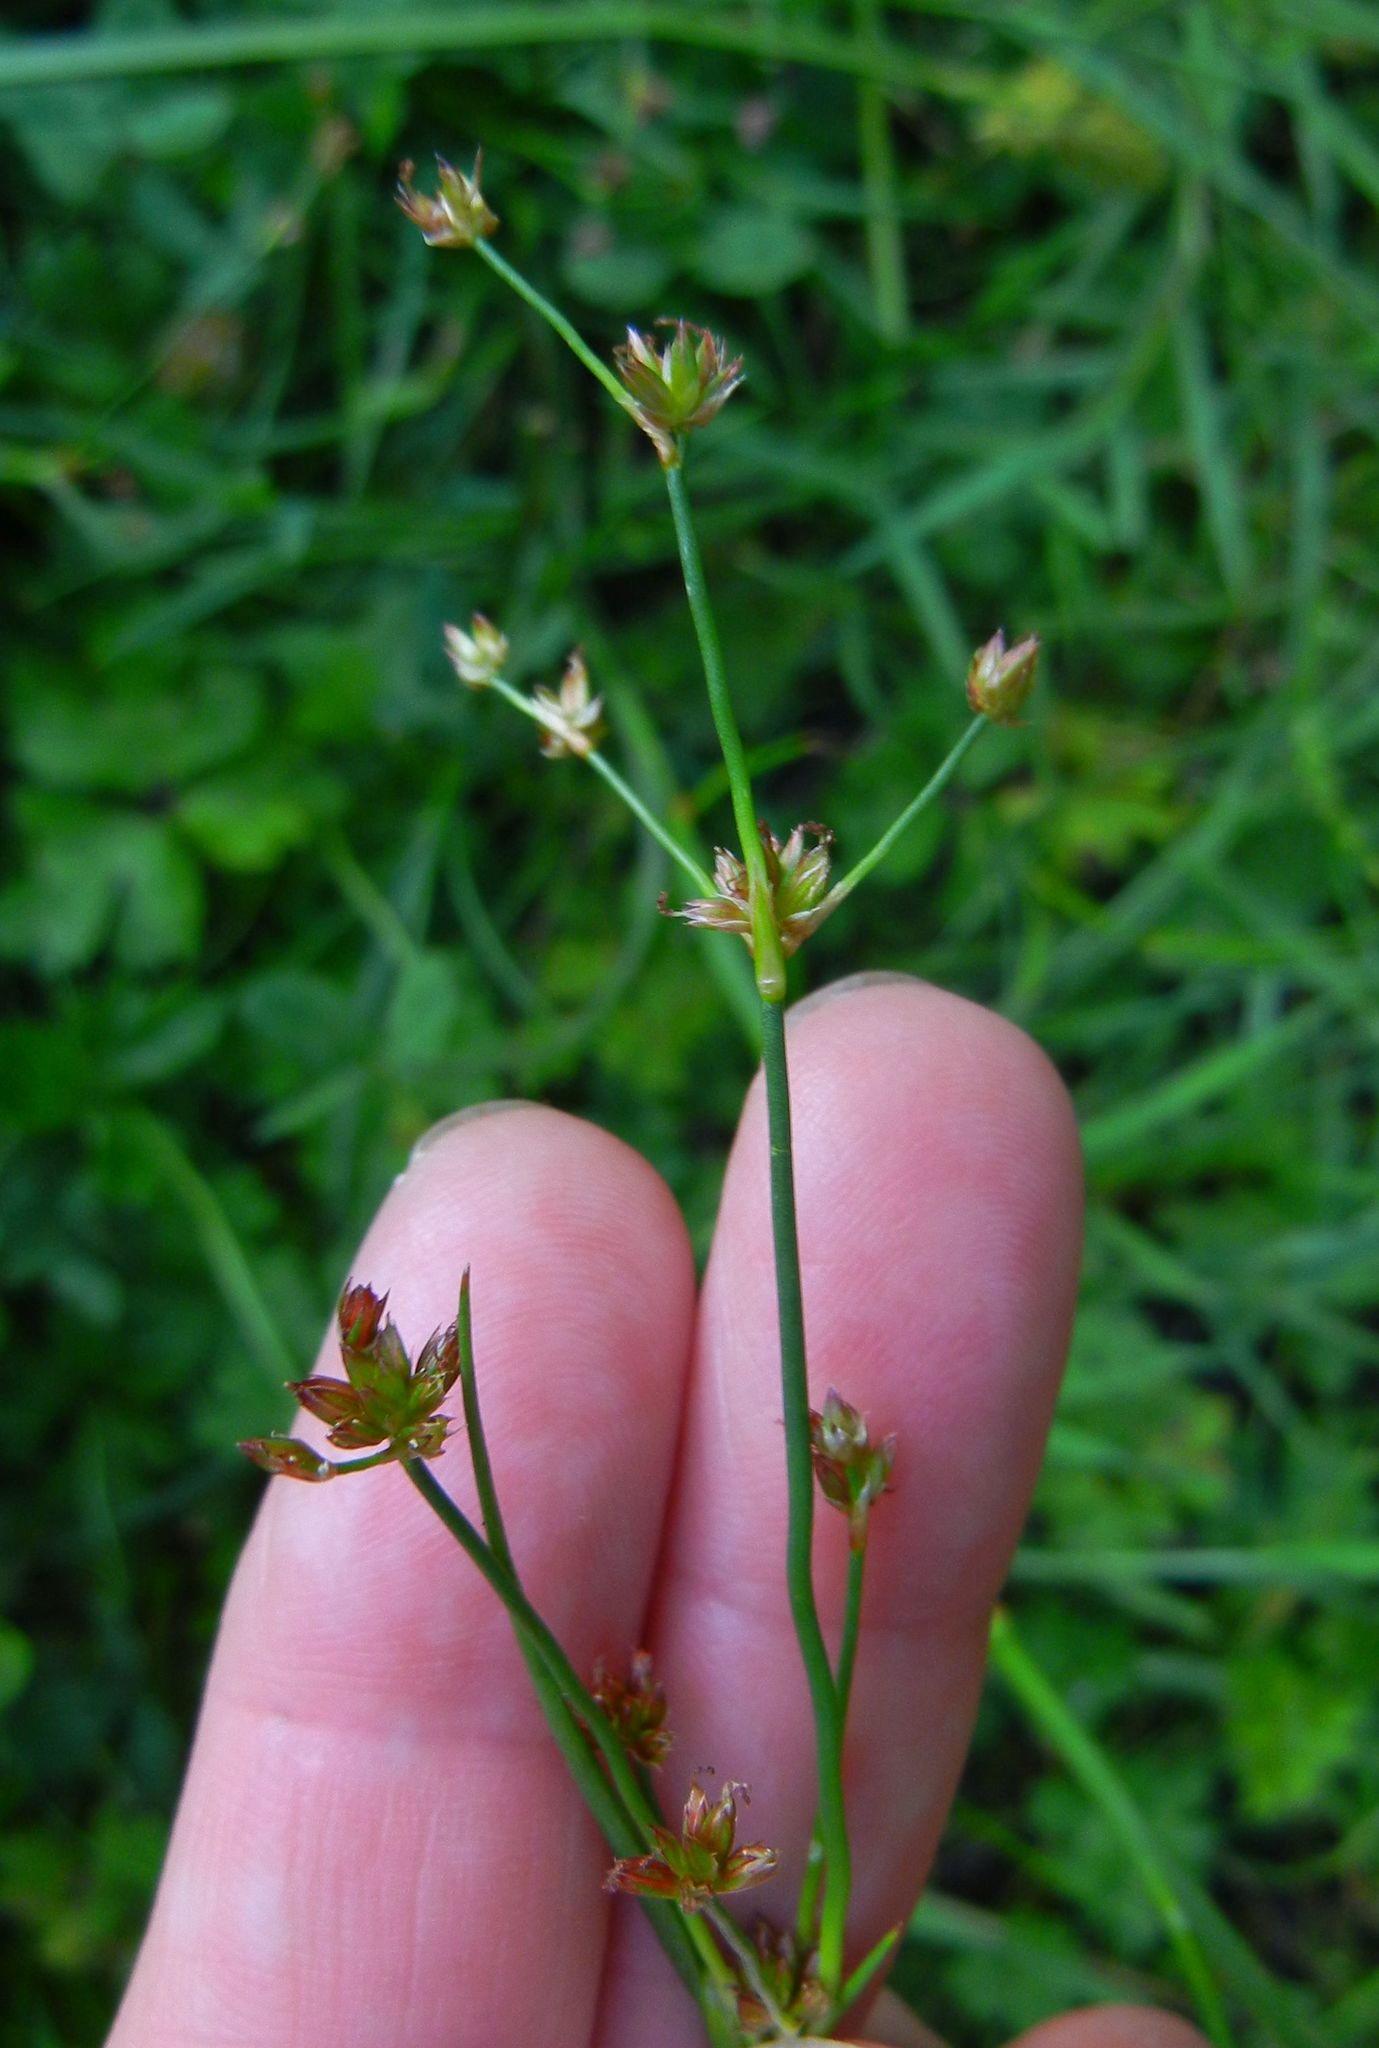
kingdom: Plantae
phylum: Tracheophyta
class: Liliopsida
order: Poales
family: Juncaceae
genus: Juncus
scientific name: Juncus articulatus
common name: Jointed rush
